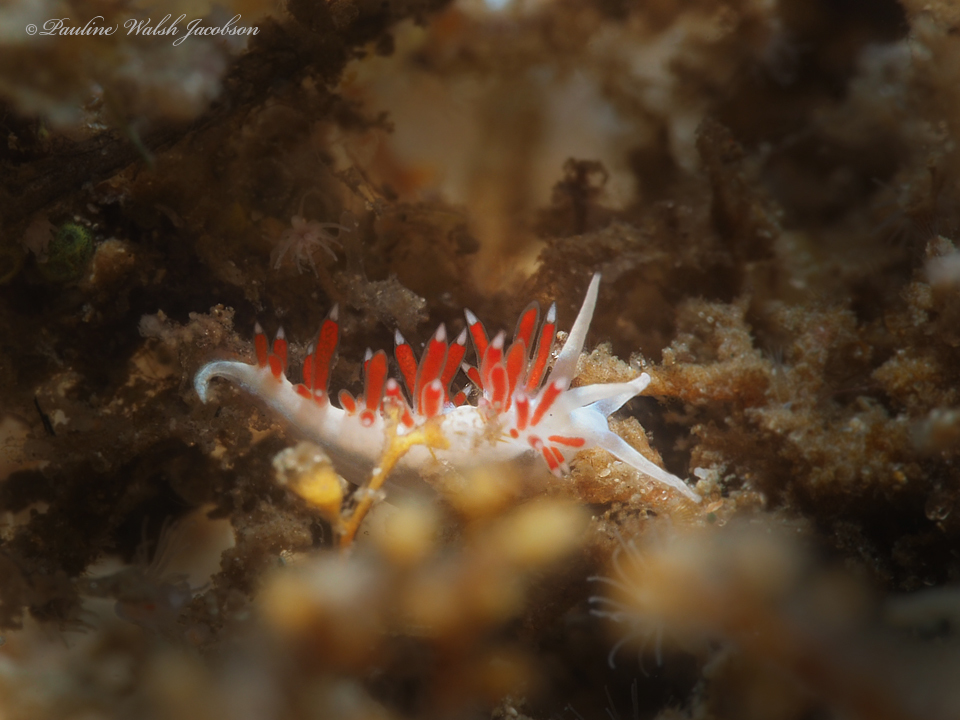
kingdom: Animalia
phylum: Mollusca
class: Gastropoda
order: Nudibranchia
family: Flabellinidae
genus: Flabellina
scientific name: Flabellina dushia
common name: Dushia flabellina
